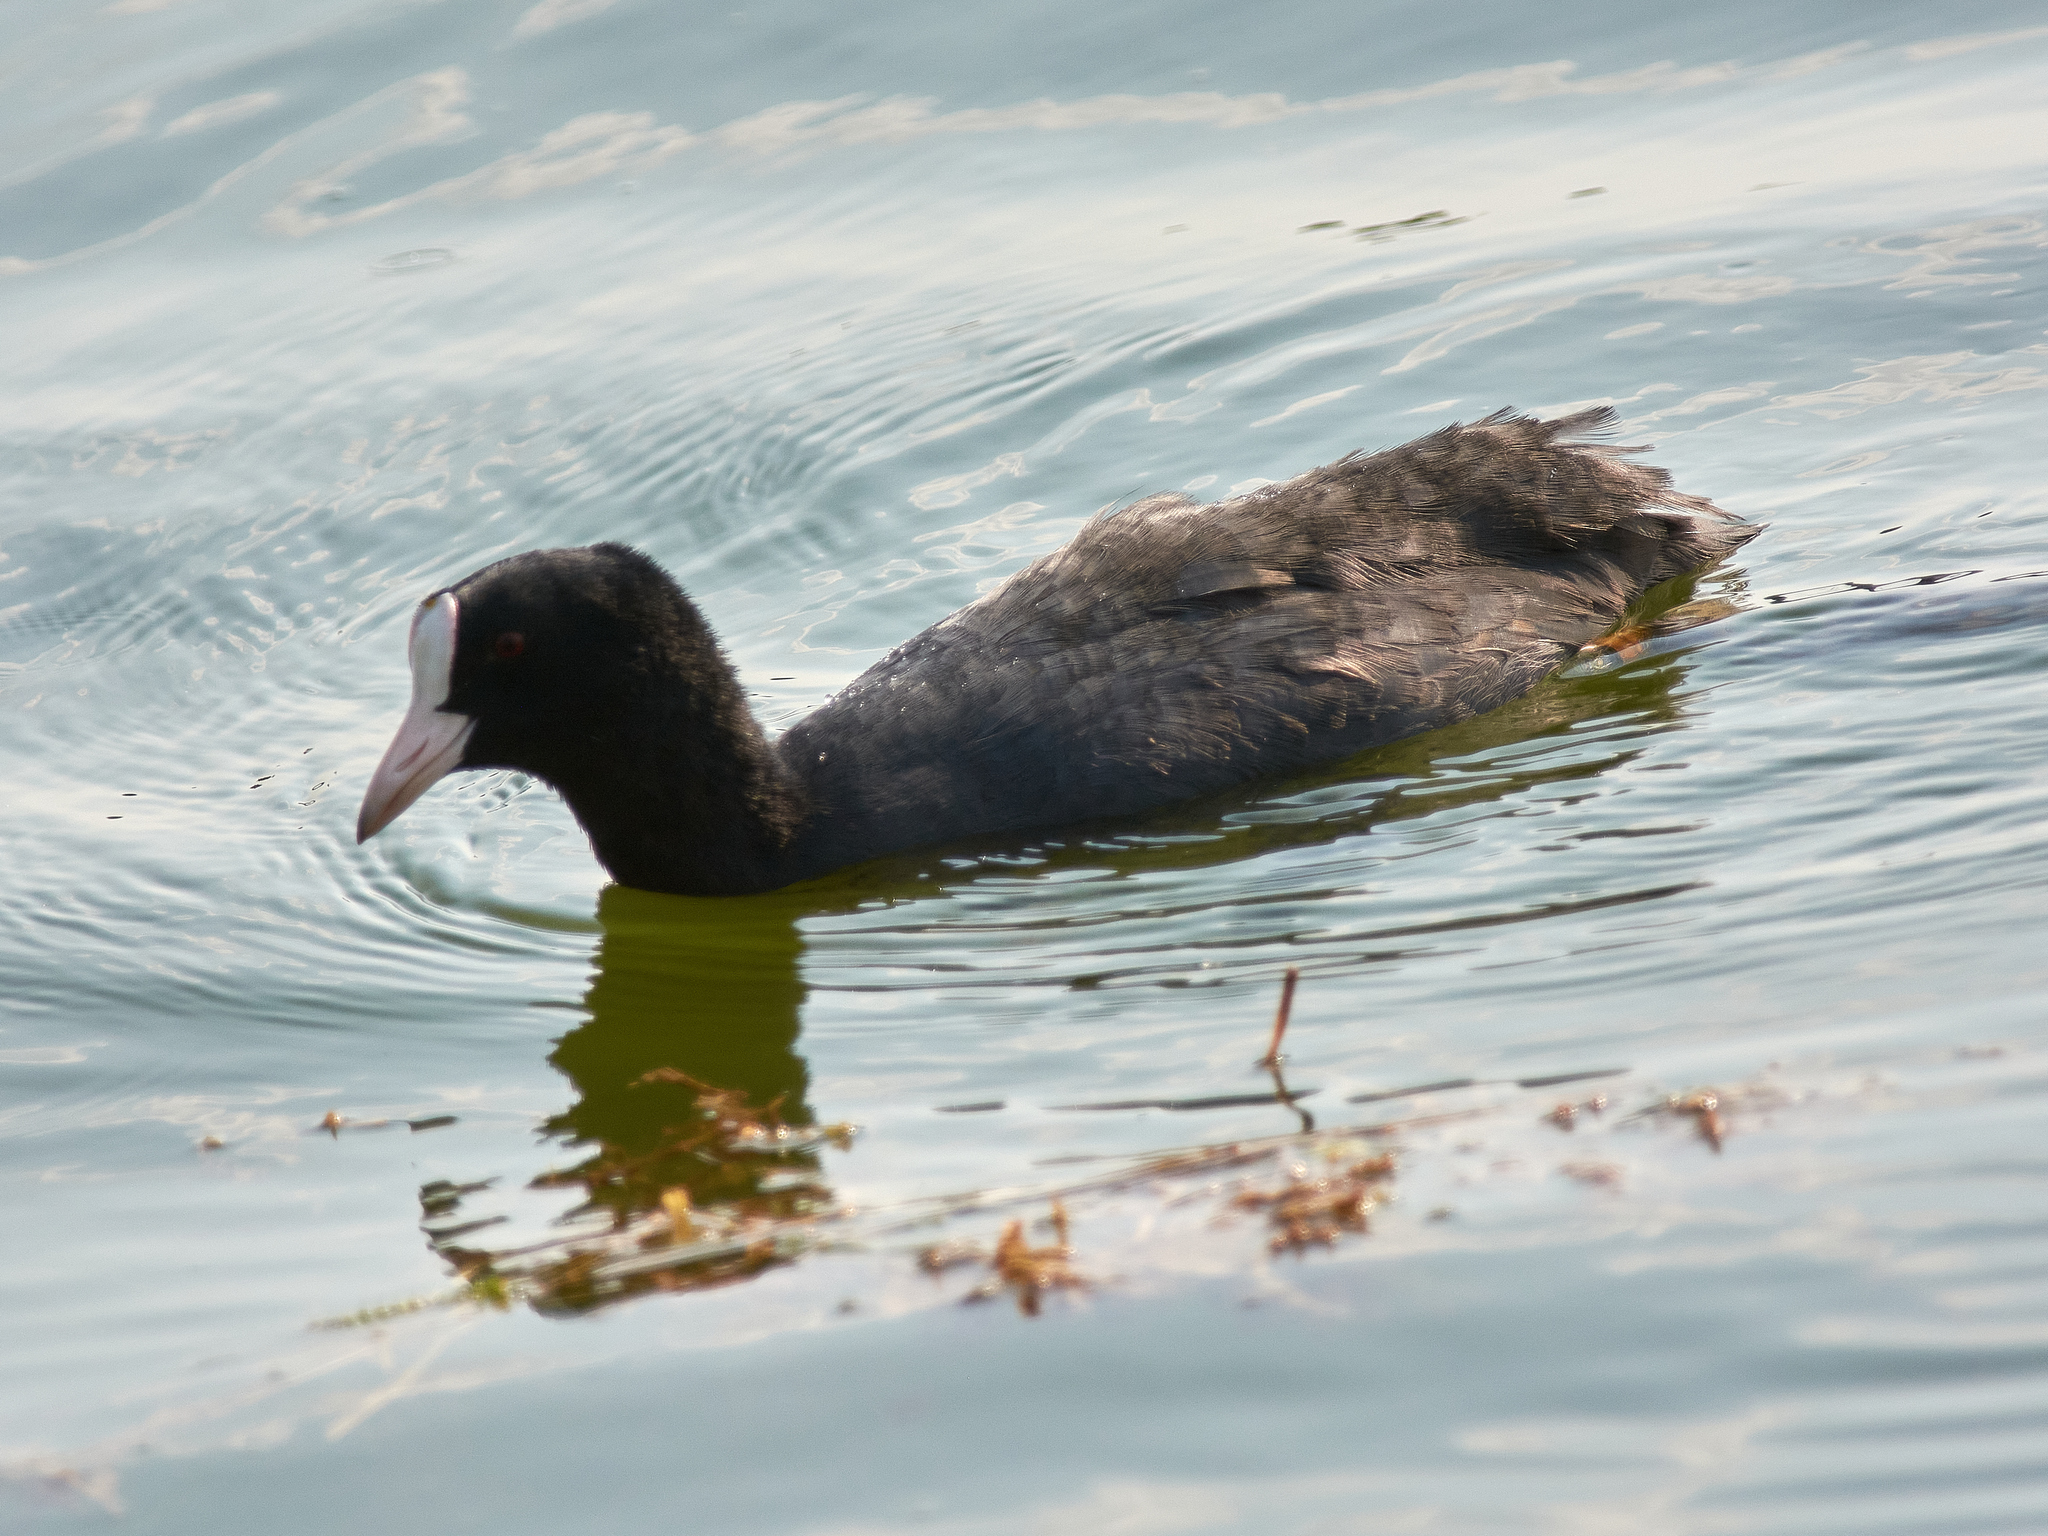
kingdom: Animalia
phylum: Chordata
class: Aves
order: Gruiformes
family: Rallidae
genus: Fulica
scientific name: Fulica atra
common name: Eurasian coot
